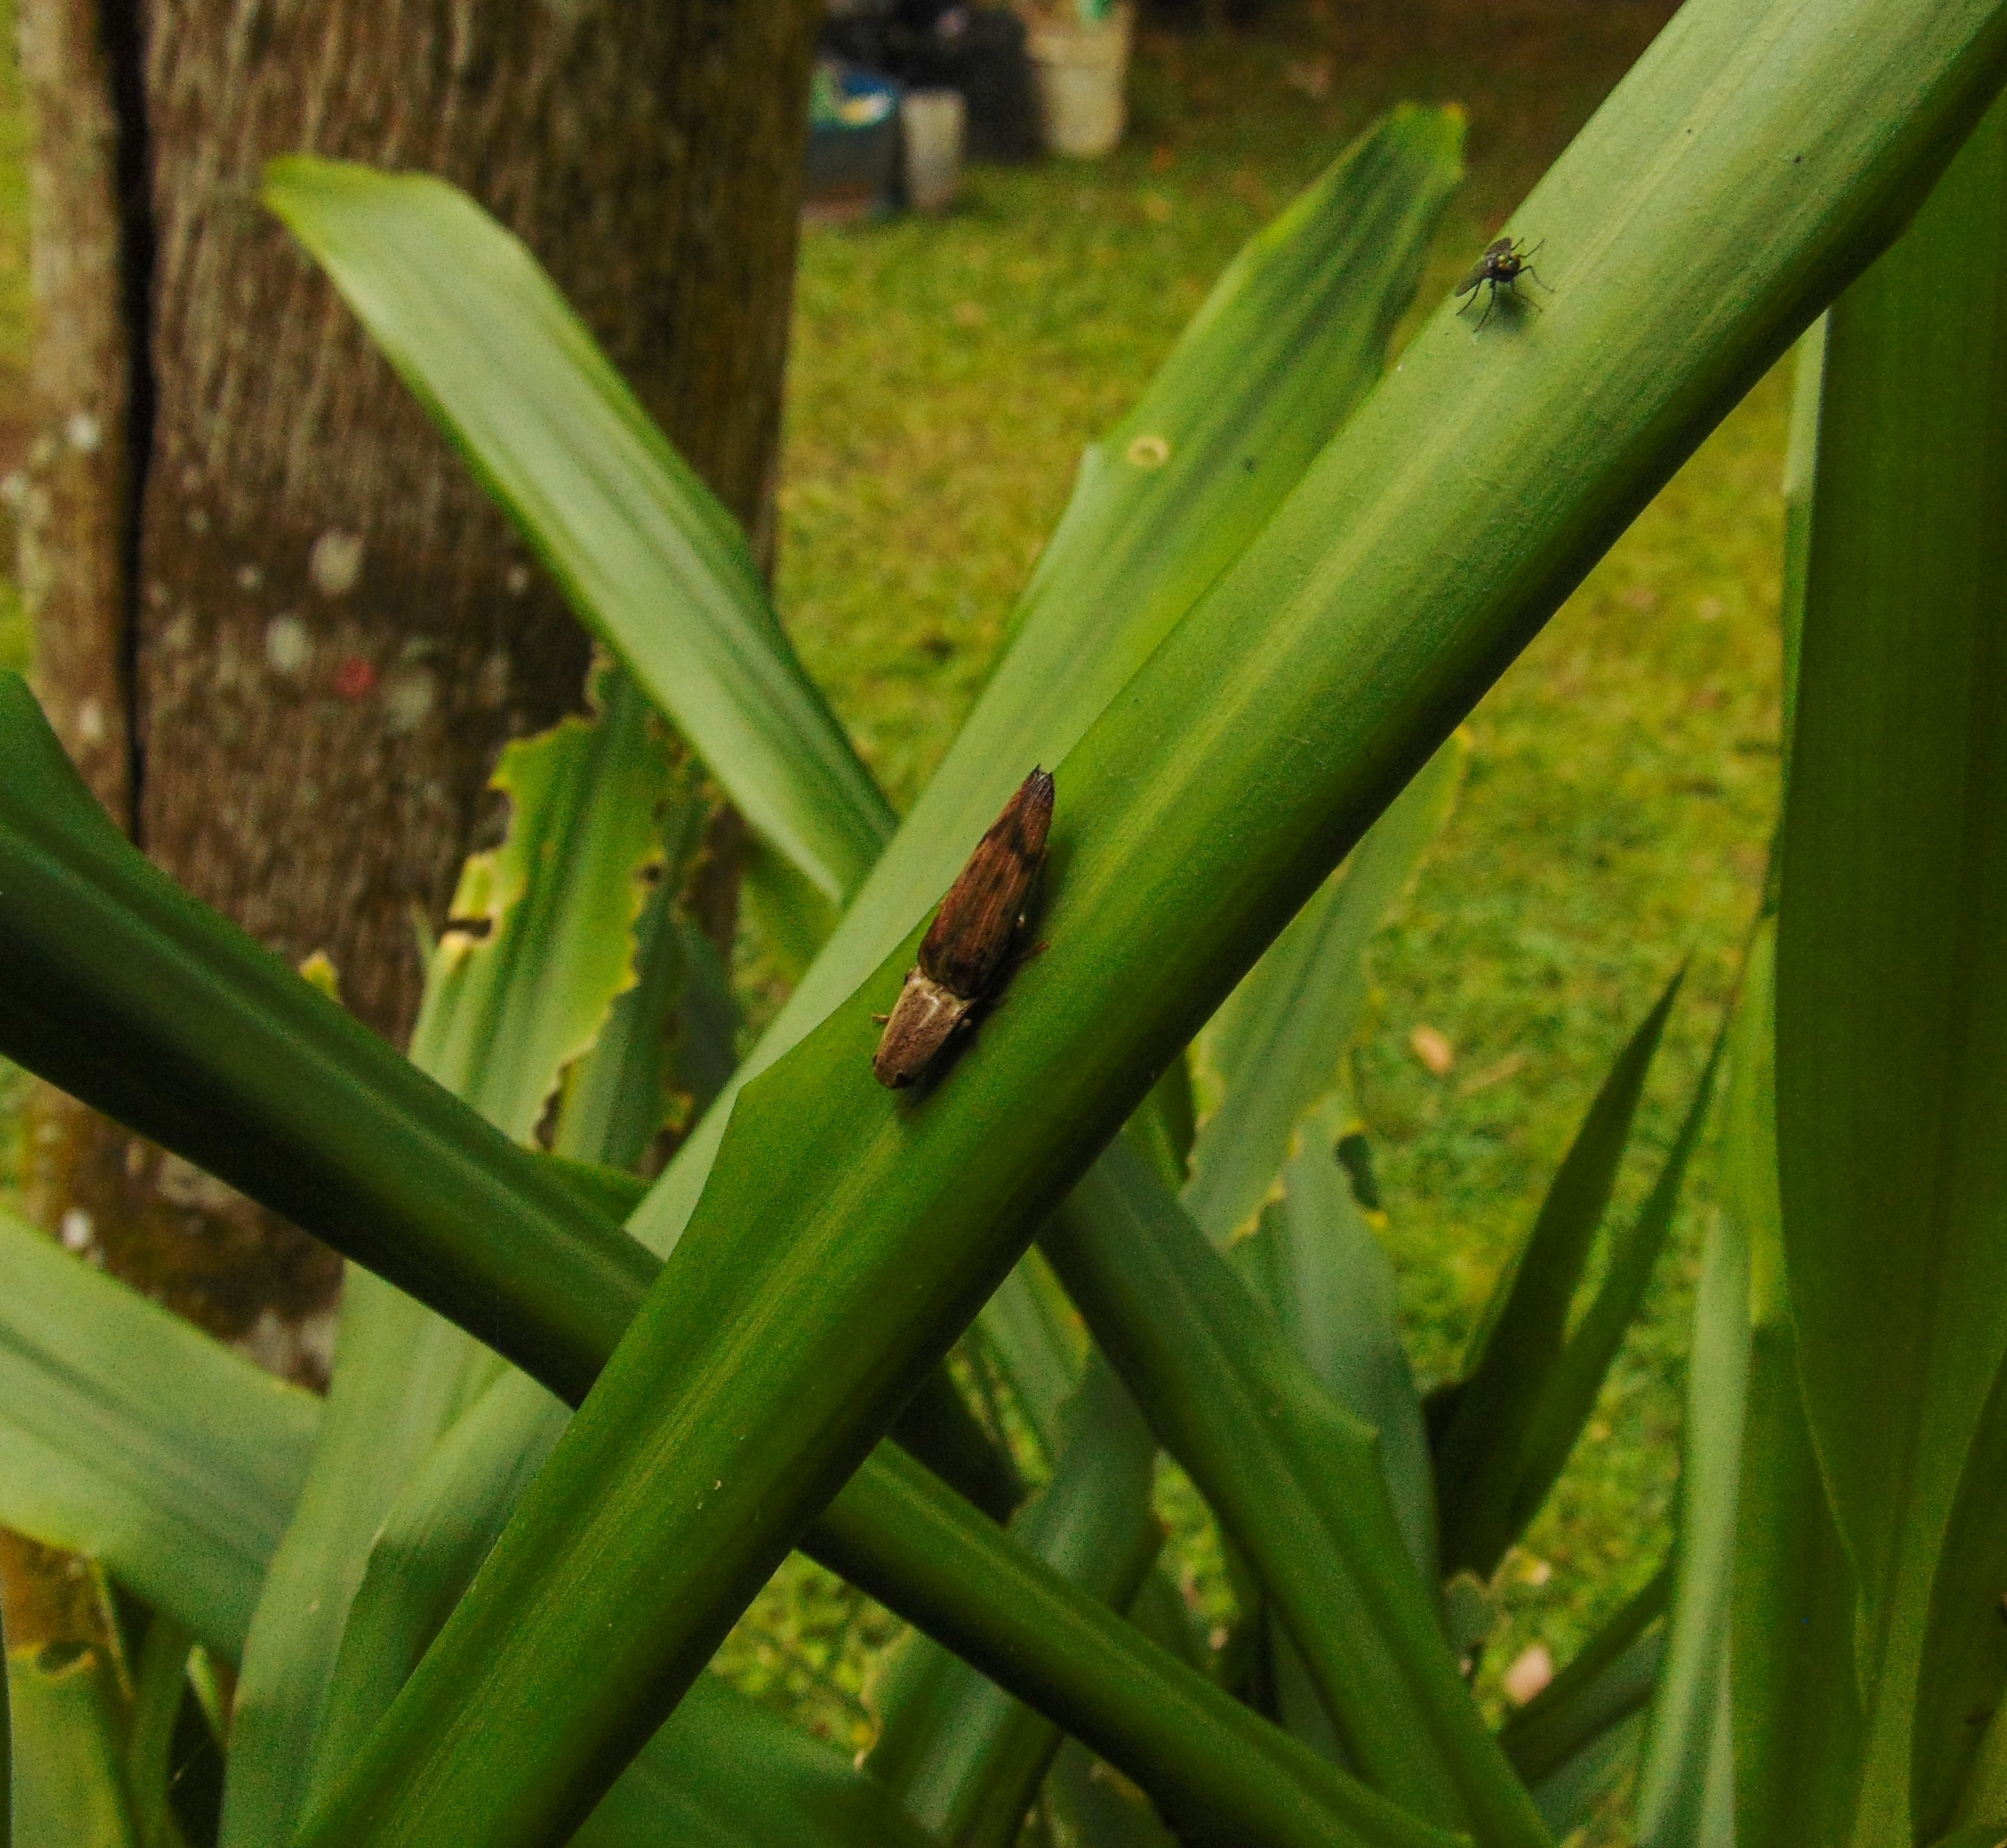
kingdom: Animalia
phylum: Arthropoda
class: Insecta
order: Coleoptera
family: Elateridae
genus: Monocrepidius
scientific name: Monocrepidius
